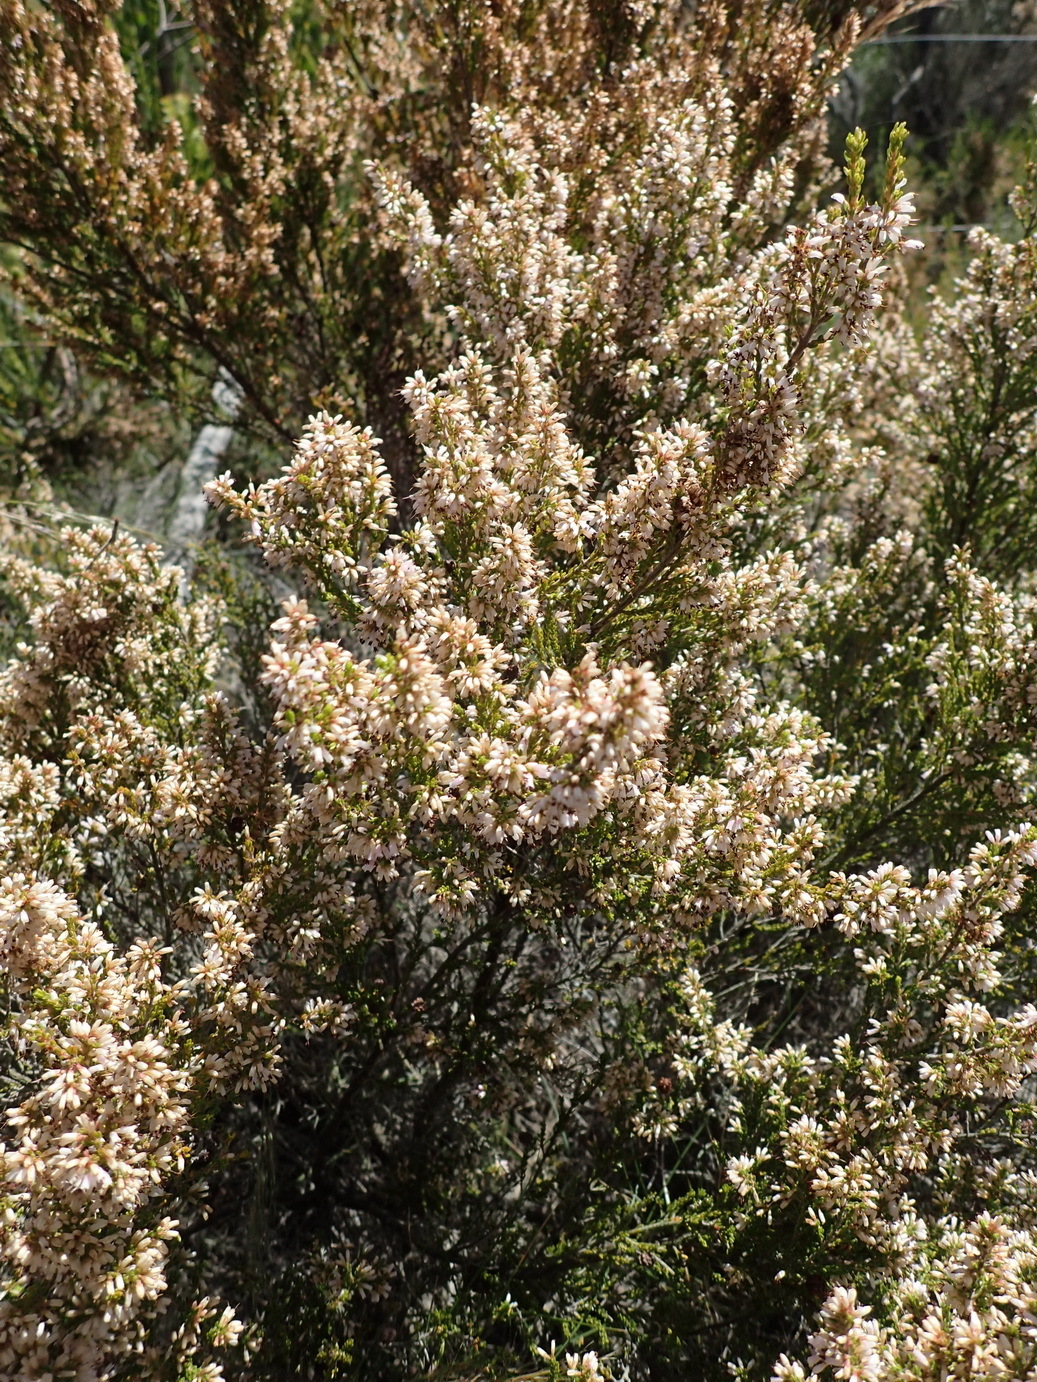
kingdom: Plantae
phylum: Tracheophyta
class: Magnoliopsida
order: Ericales
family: Ericaceae
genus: Erica
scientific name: Erica uberiflora
